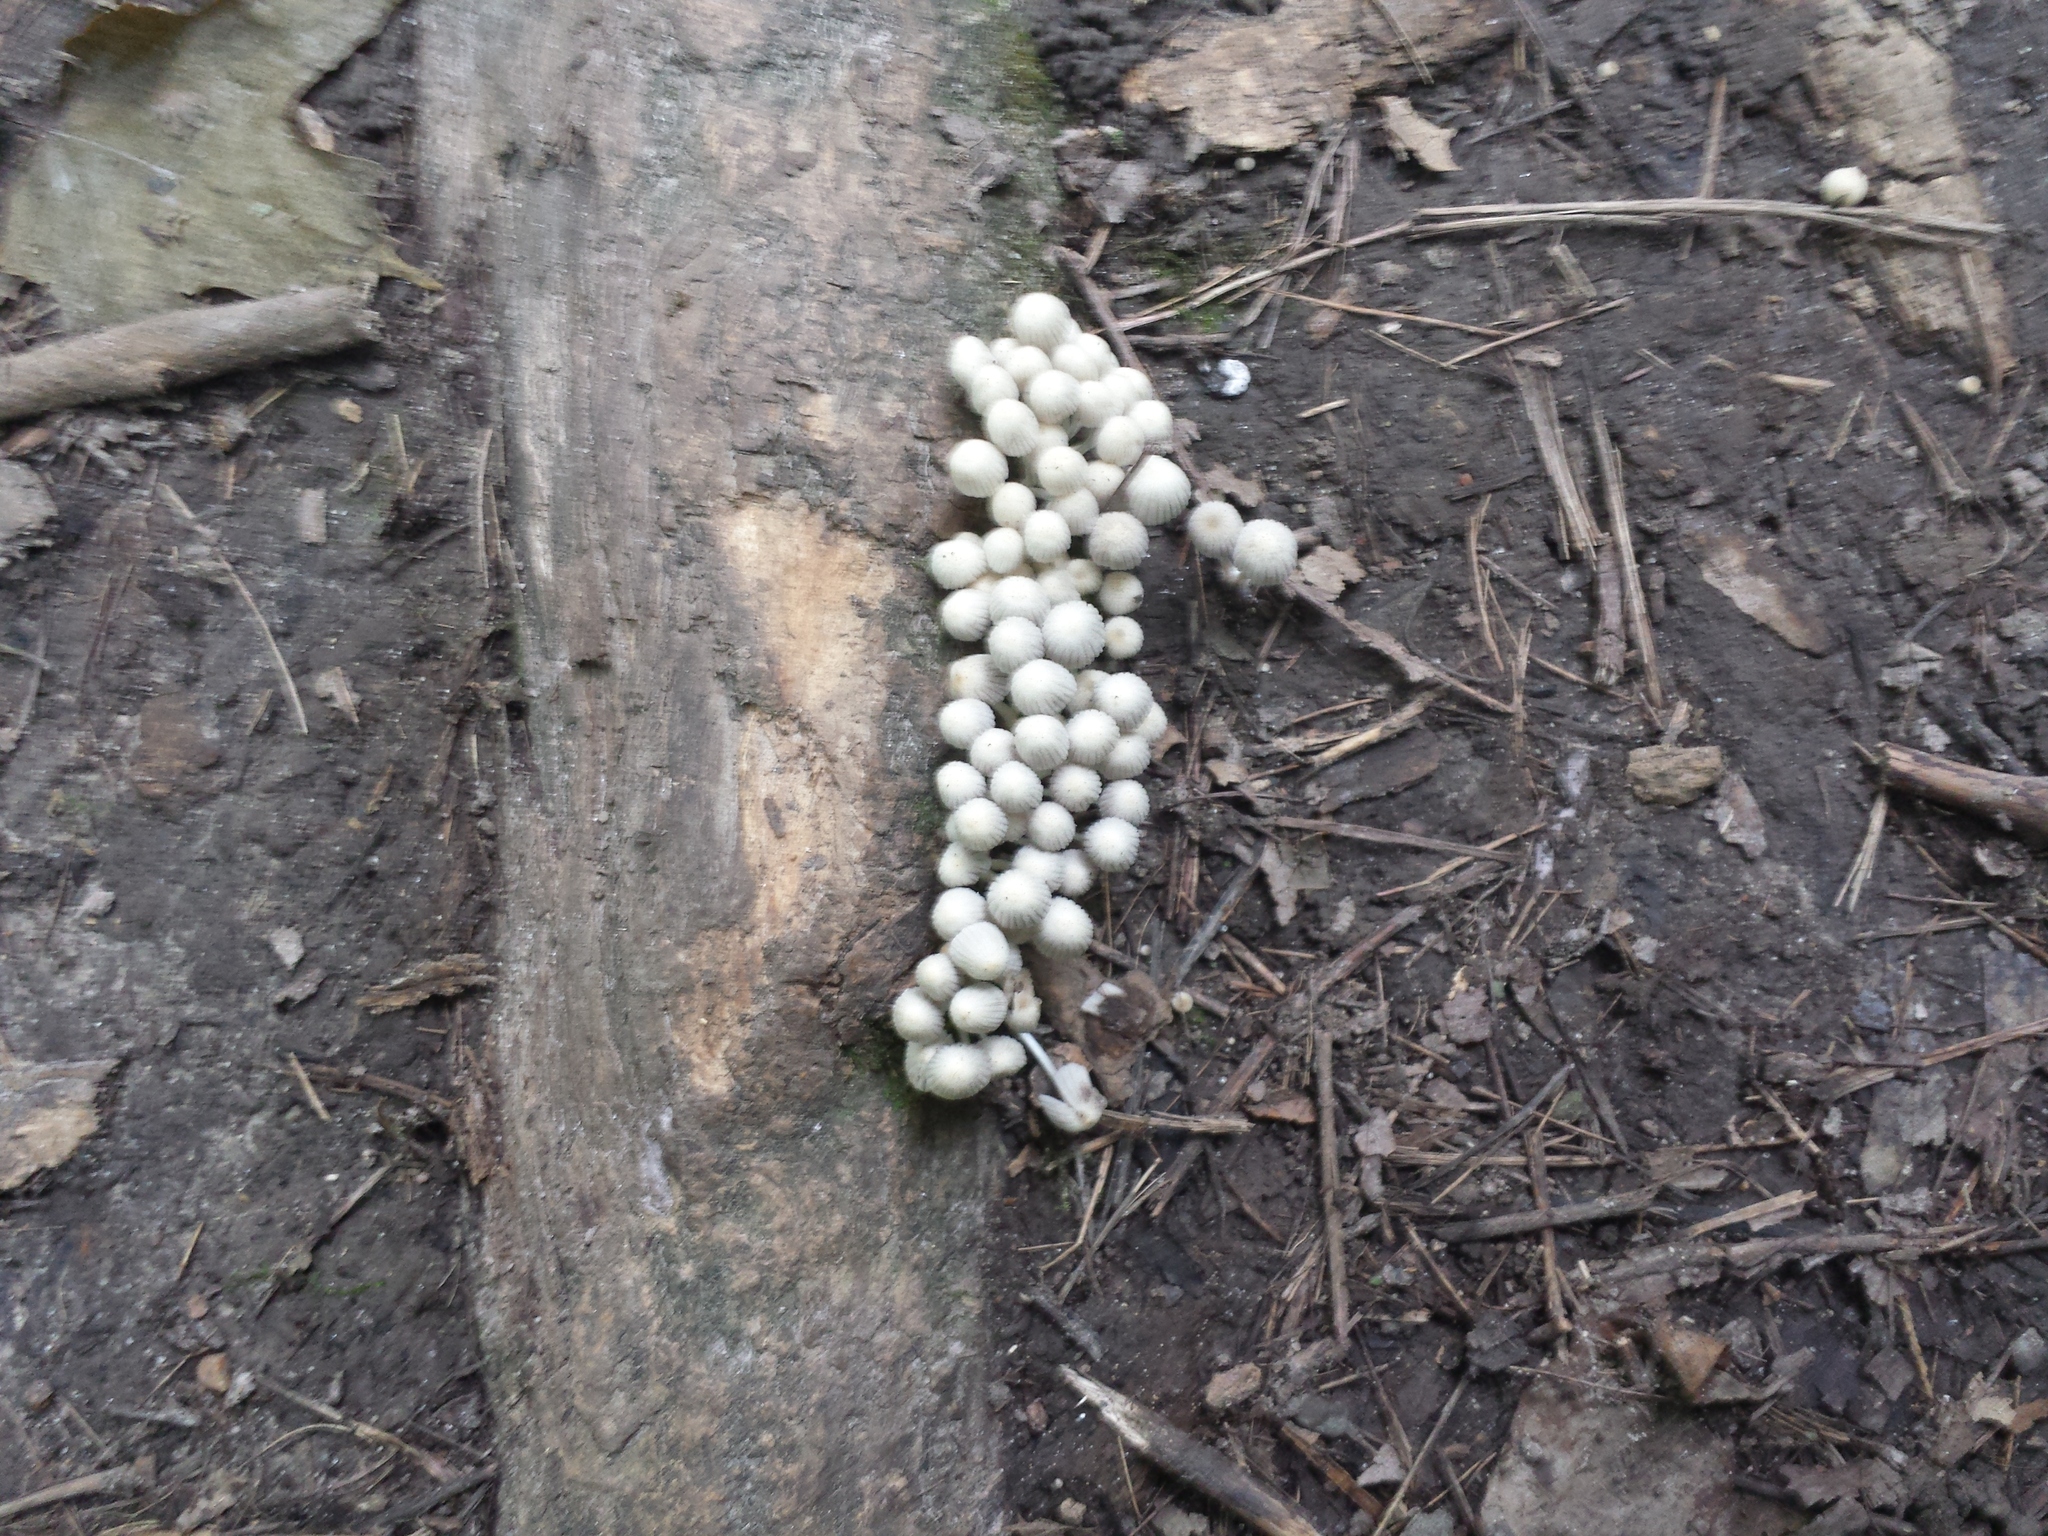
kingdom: Fungi
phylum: Basidiomycota
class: Agaricomycetes
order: Agaricales
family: Psathyrellaceae
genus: Coprinellus
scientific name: Coprinellus disseminatus
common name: Fairies' bonnets
